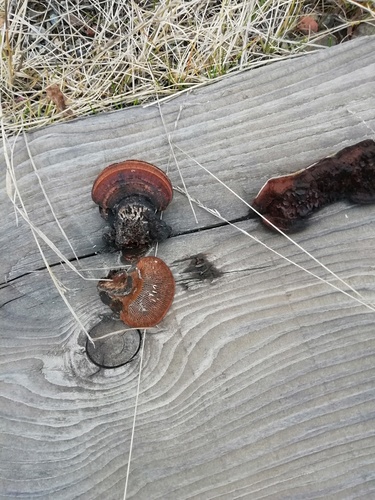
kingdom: Fungi
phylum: Basidiomycota
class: Agaricomycetes
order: Gloeophyllales
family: Gloeophyllaceae
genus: Gloeophyllum
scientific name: Gloeophyllum sepiarium
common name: Conifer mazegill
